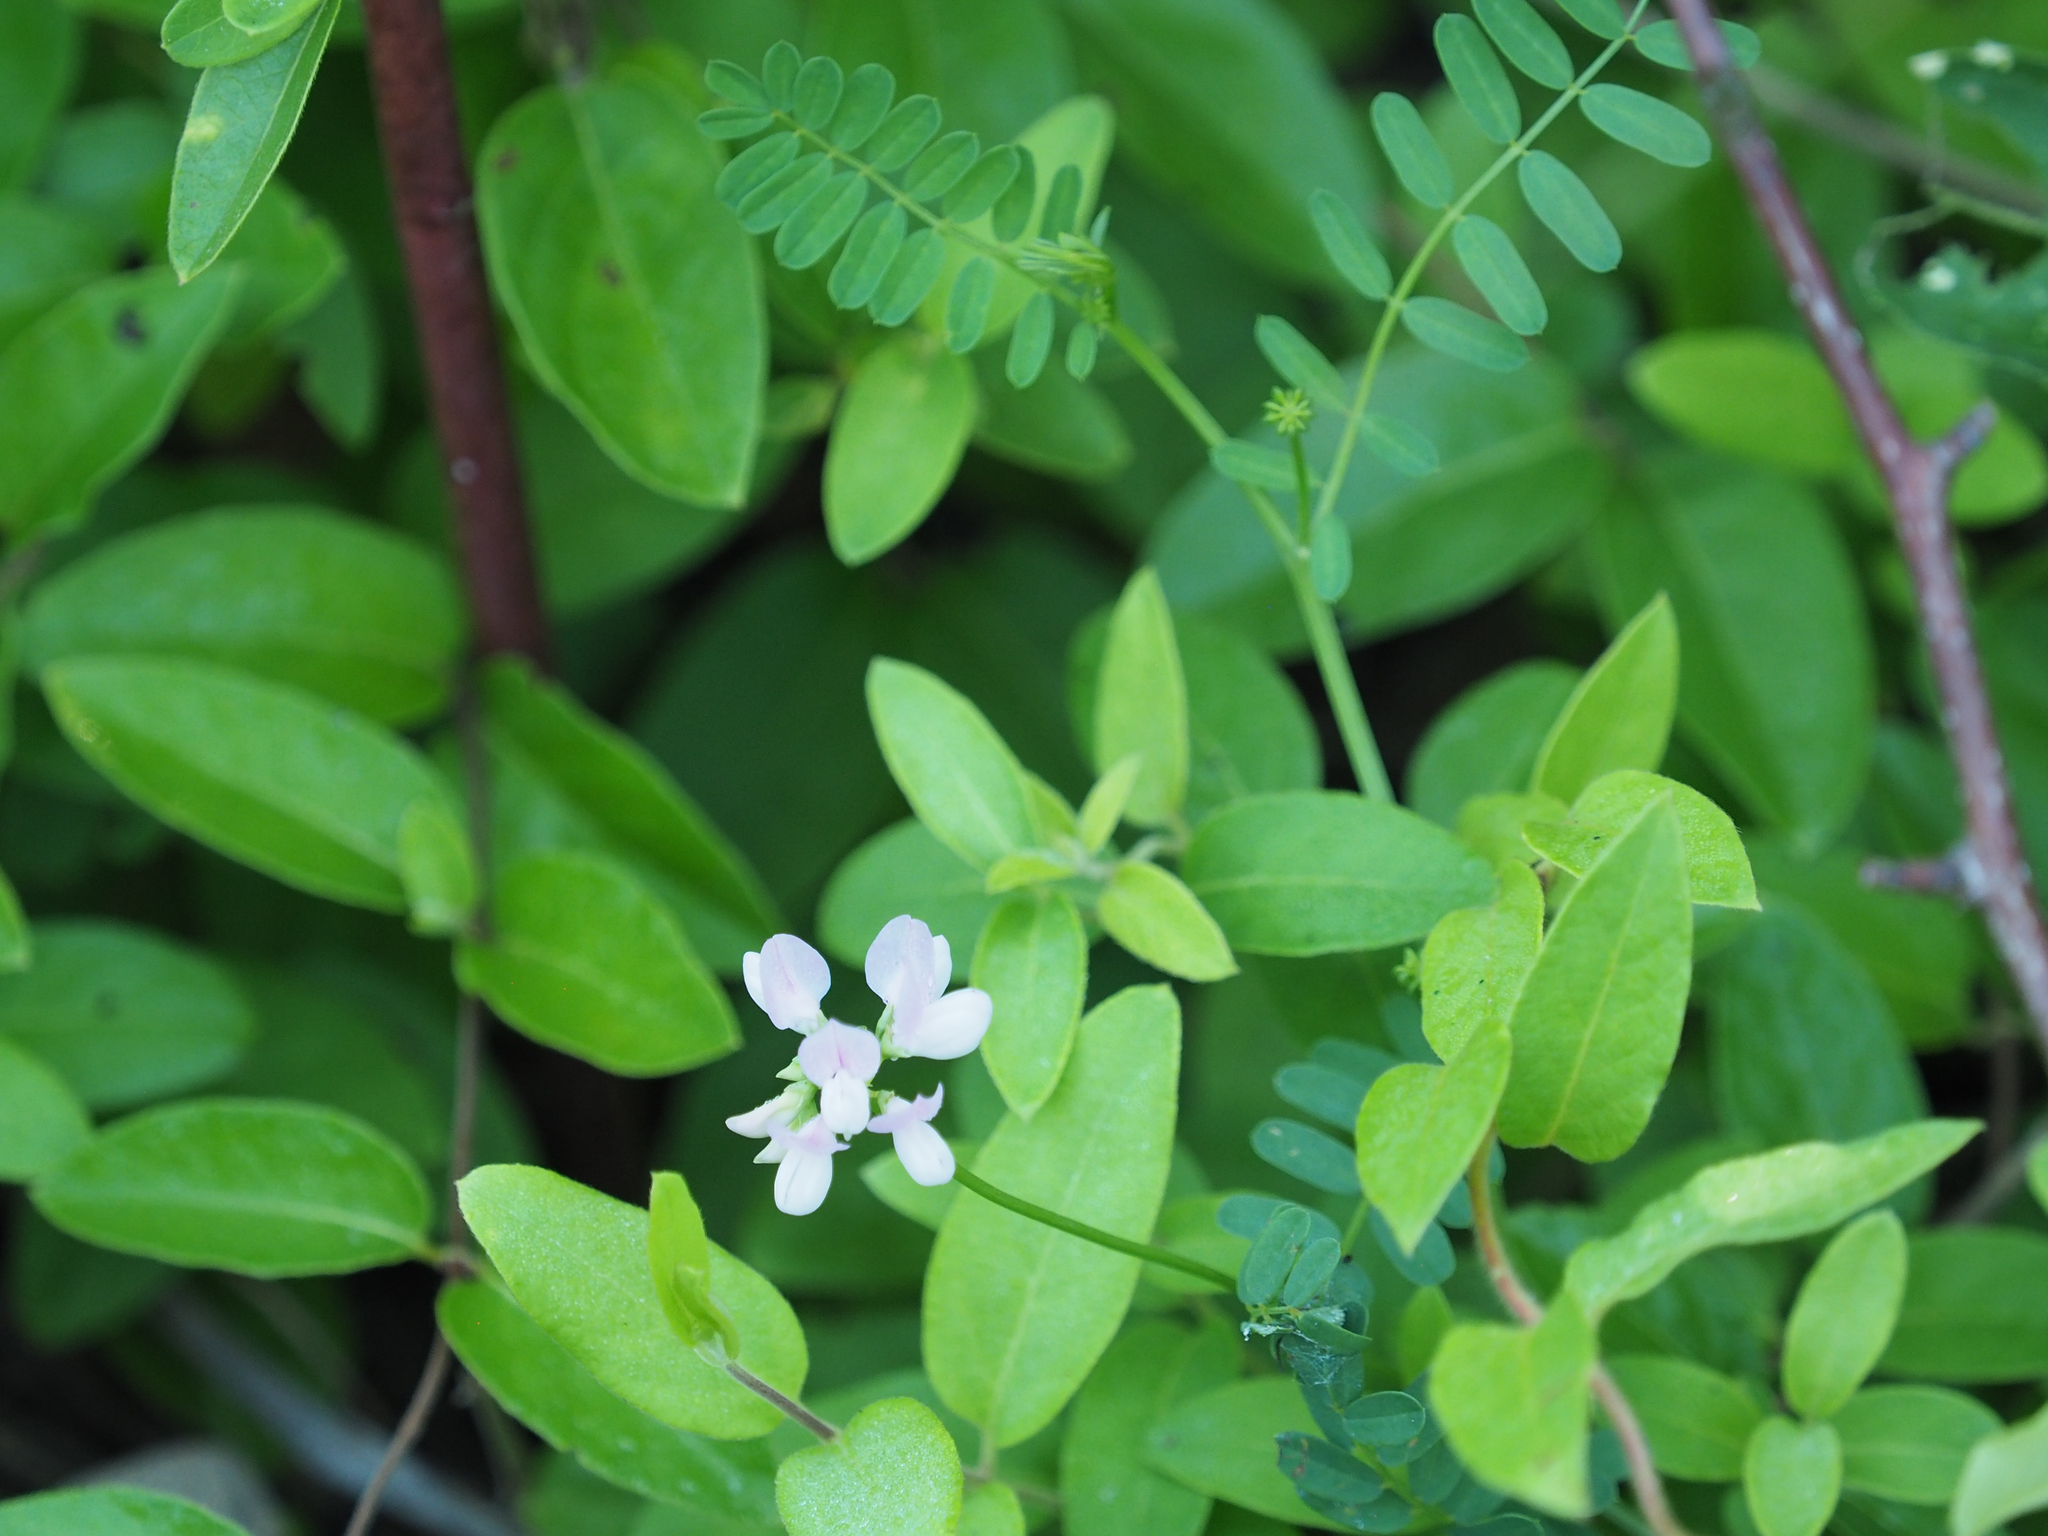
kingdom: Plantae
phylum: Tracheophyta
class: Magnoliopsida
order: Fabales
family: Fabaceae
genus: Coronilla
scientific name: Coronilla varia
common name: Crownvetch
